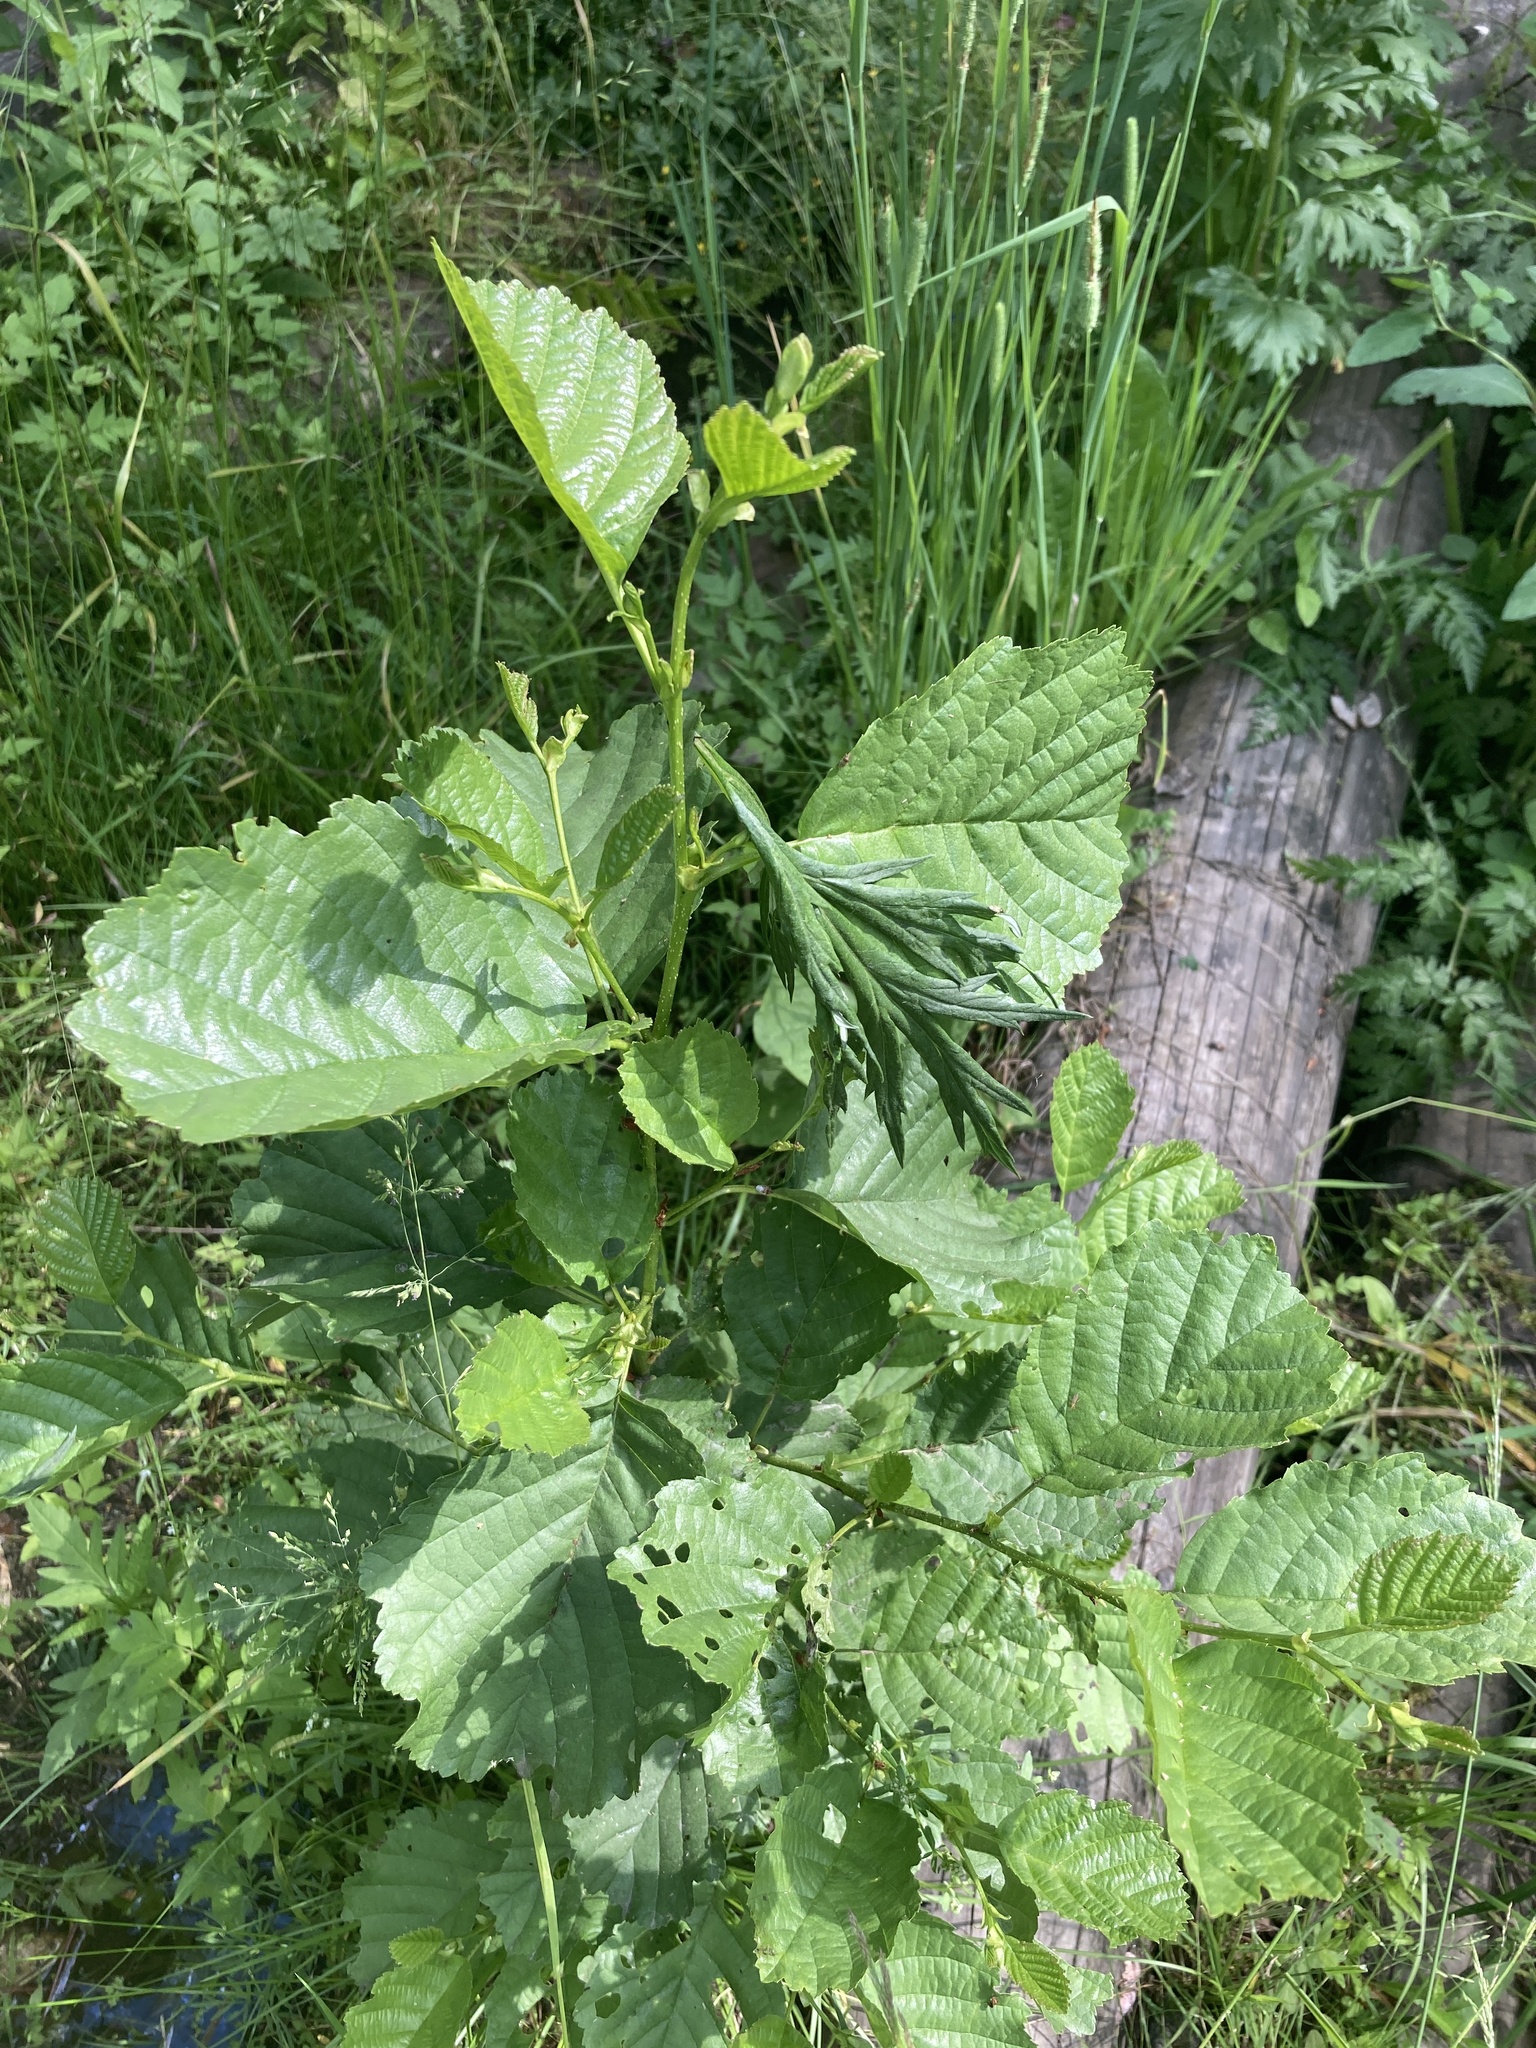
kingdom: Plantae
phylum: Tracheophyta
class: Magnoliopsida
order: Fagales
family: Betulaceae
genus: Alnus
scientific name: Alnus glutinosa
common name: Black alder
